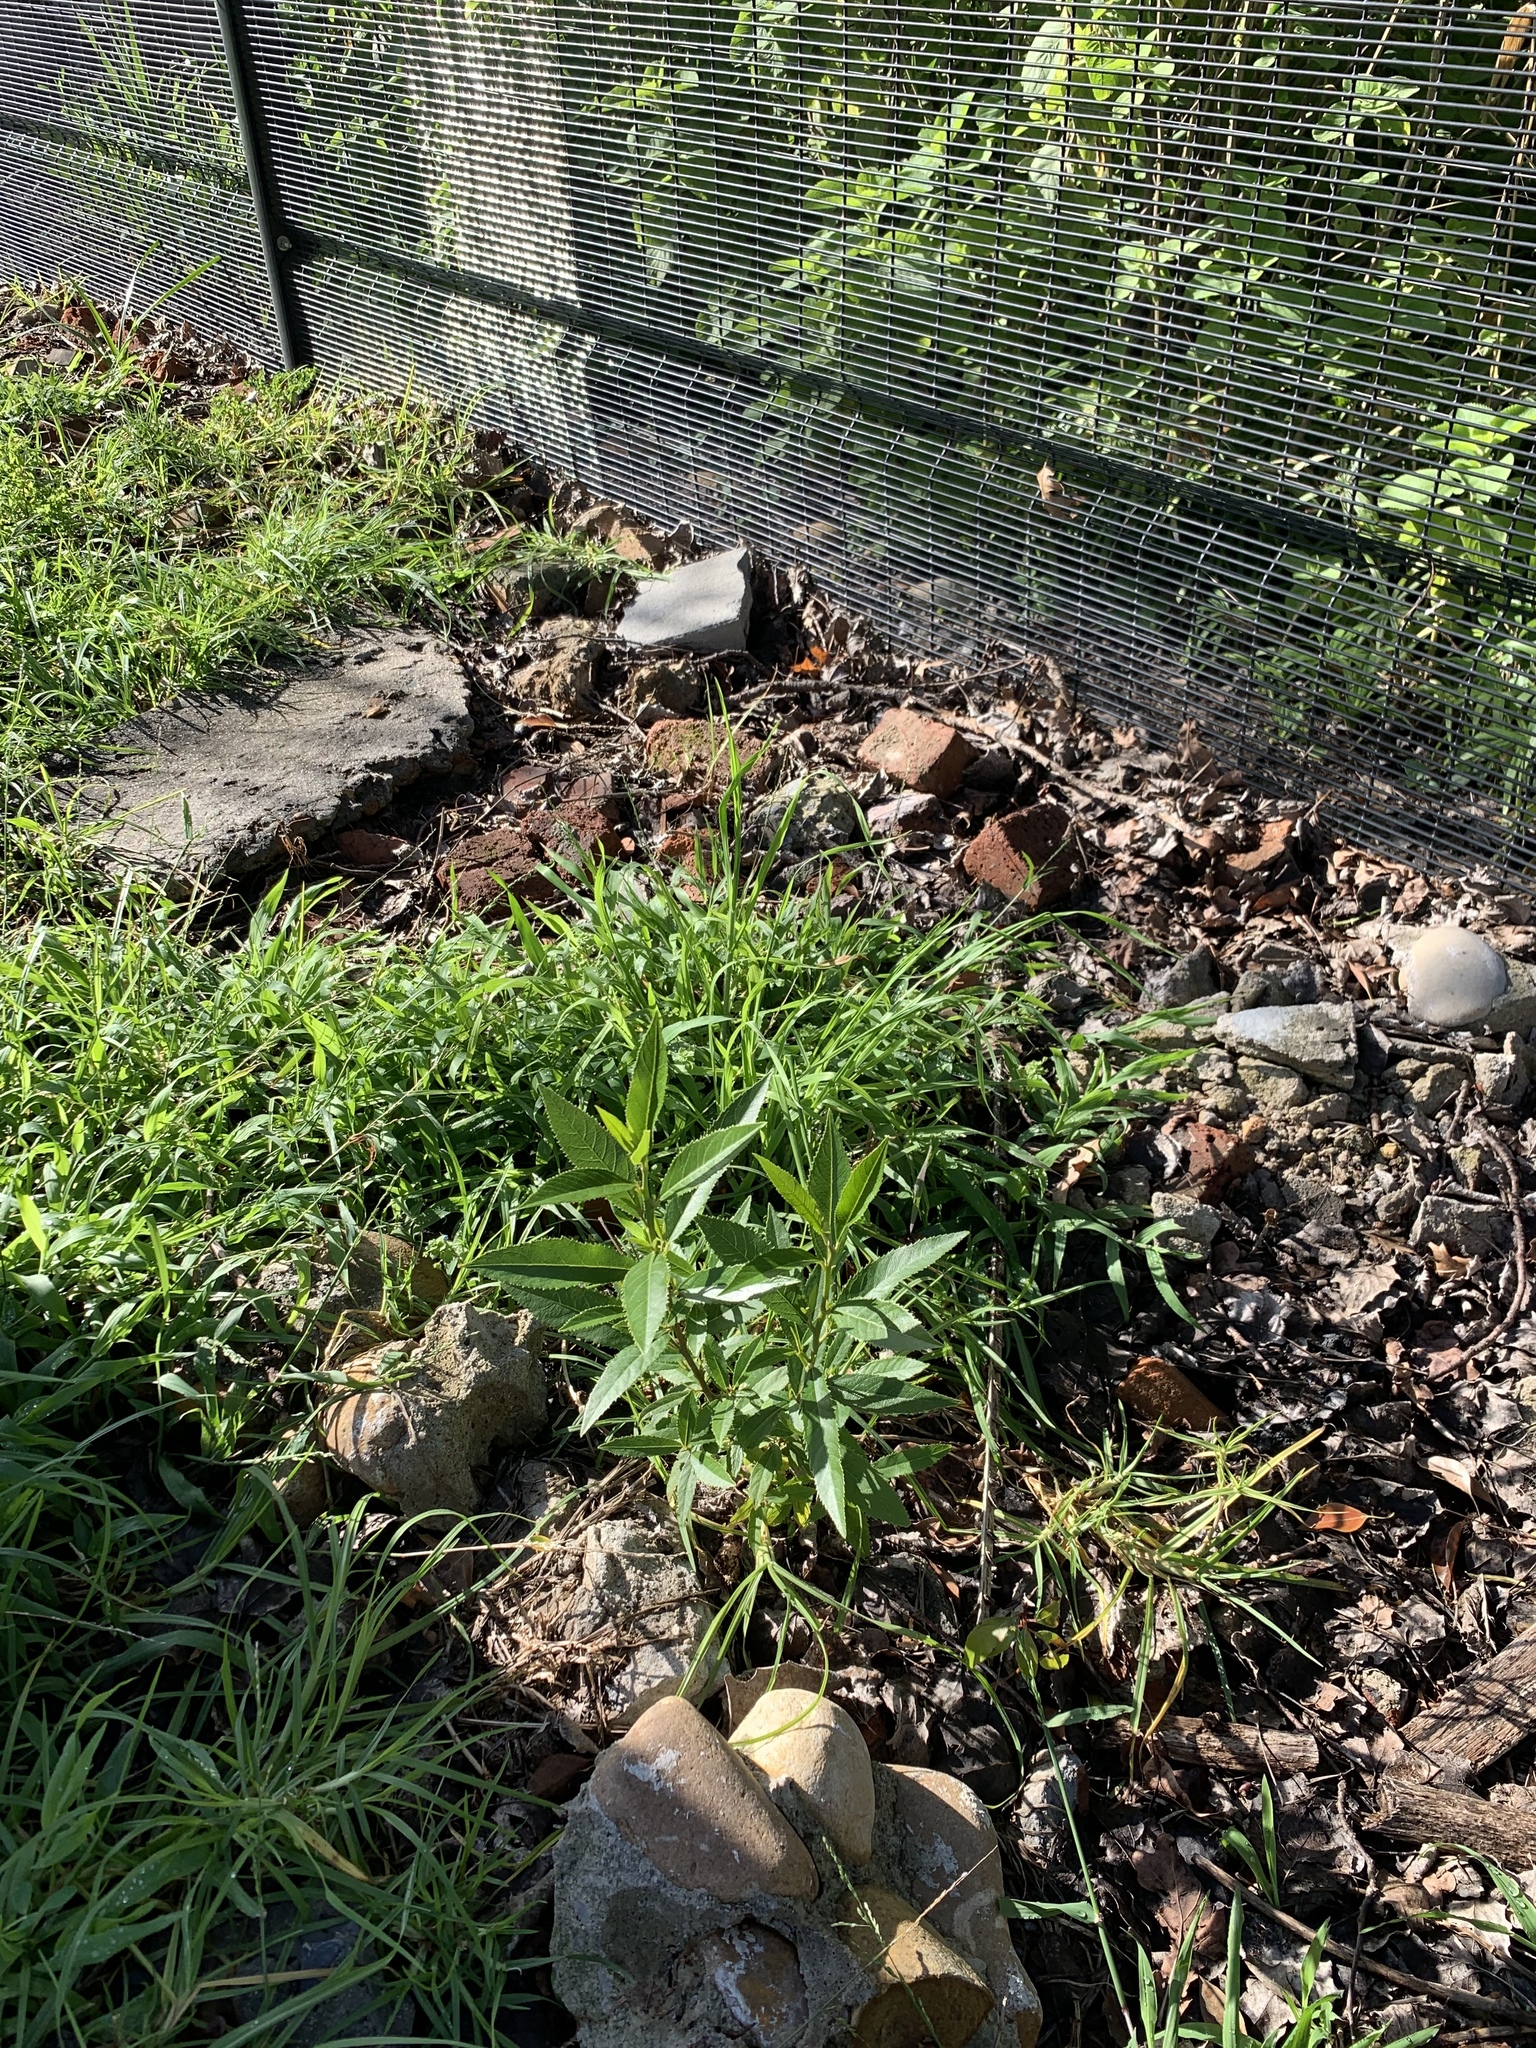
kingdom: Plantae
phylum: Tracheophyta
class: Magnoliopsida
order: Malpighiales
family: Achariaceae
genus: Kiggelaria
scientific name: Kiggelaria africana
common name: Wild peach
